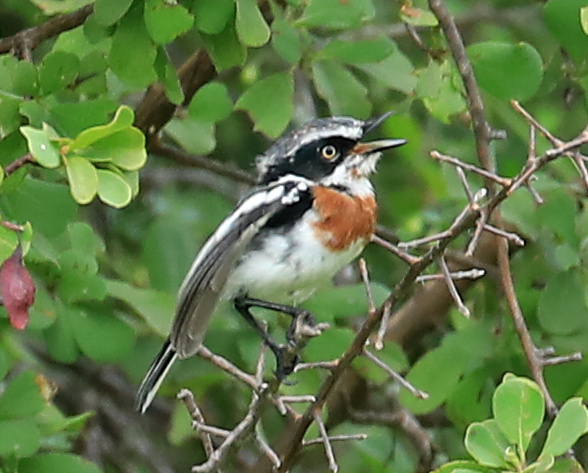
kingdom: Animalia
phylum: Chordata
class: Aves
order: Passeriformes
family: Platysteiridae
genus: Batis
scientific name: Batis molitor
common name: Chinspot batis
